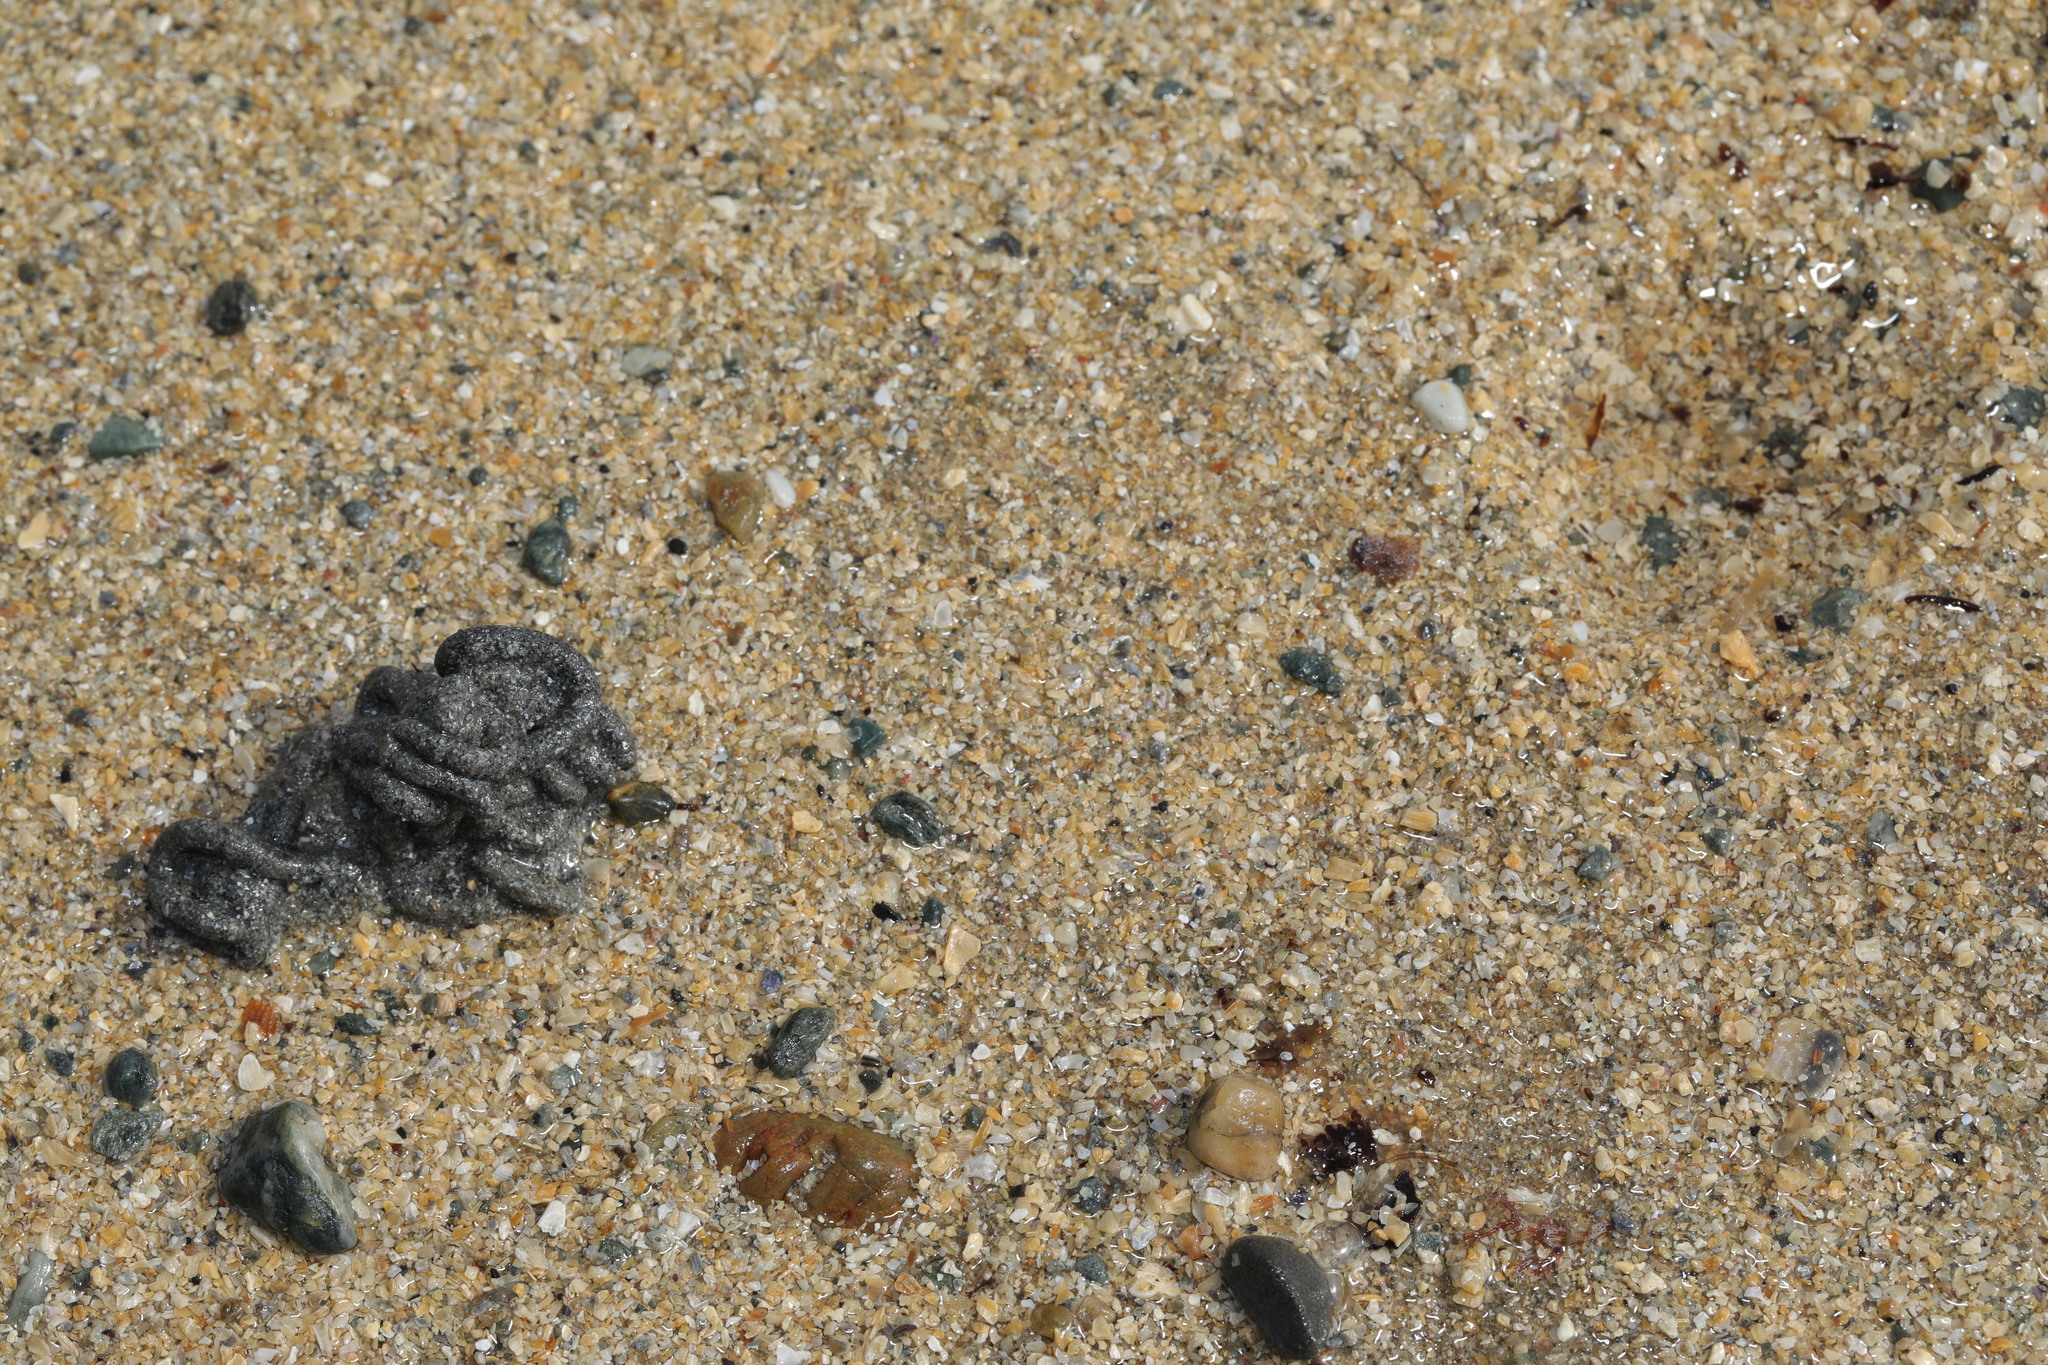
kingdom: Animalia
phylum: Annelida
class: Polychaeta
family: Arenicolidae
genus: Arenicola
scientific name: Arenicola marina
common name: Blow lugworm
